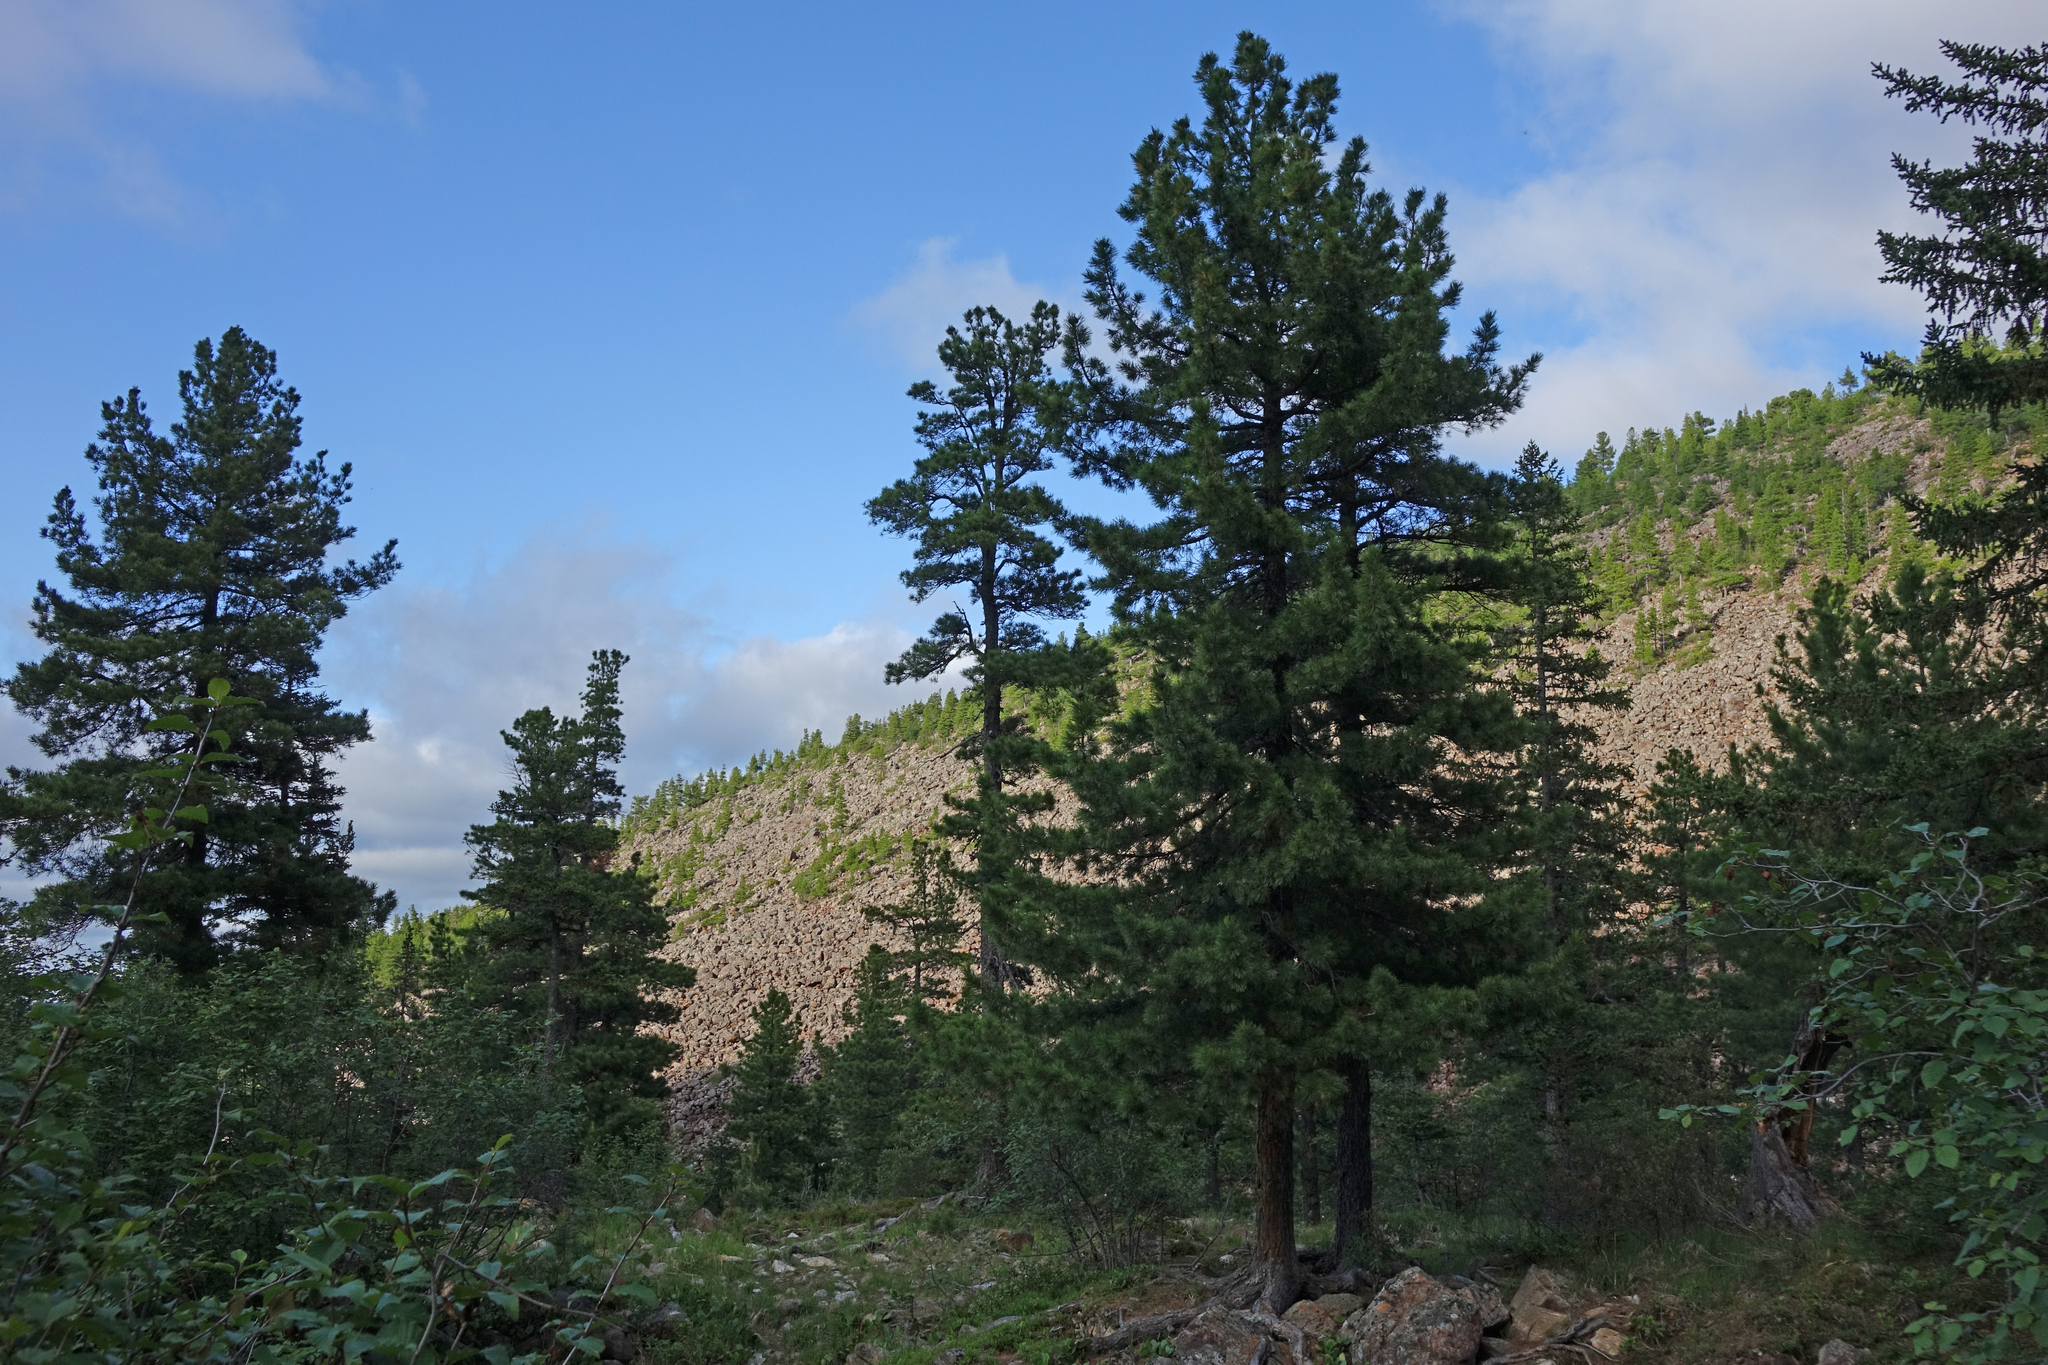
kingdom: Plantae
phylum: Tracheophyta
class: Pinopsida
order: Pinales
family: Pinaceae
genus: Pinus
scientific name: Pinus sibirica
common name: Siberian pine
